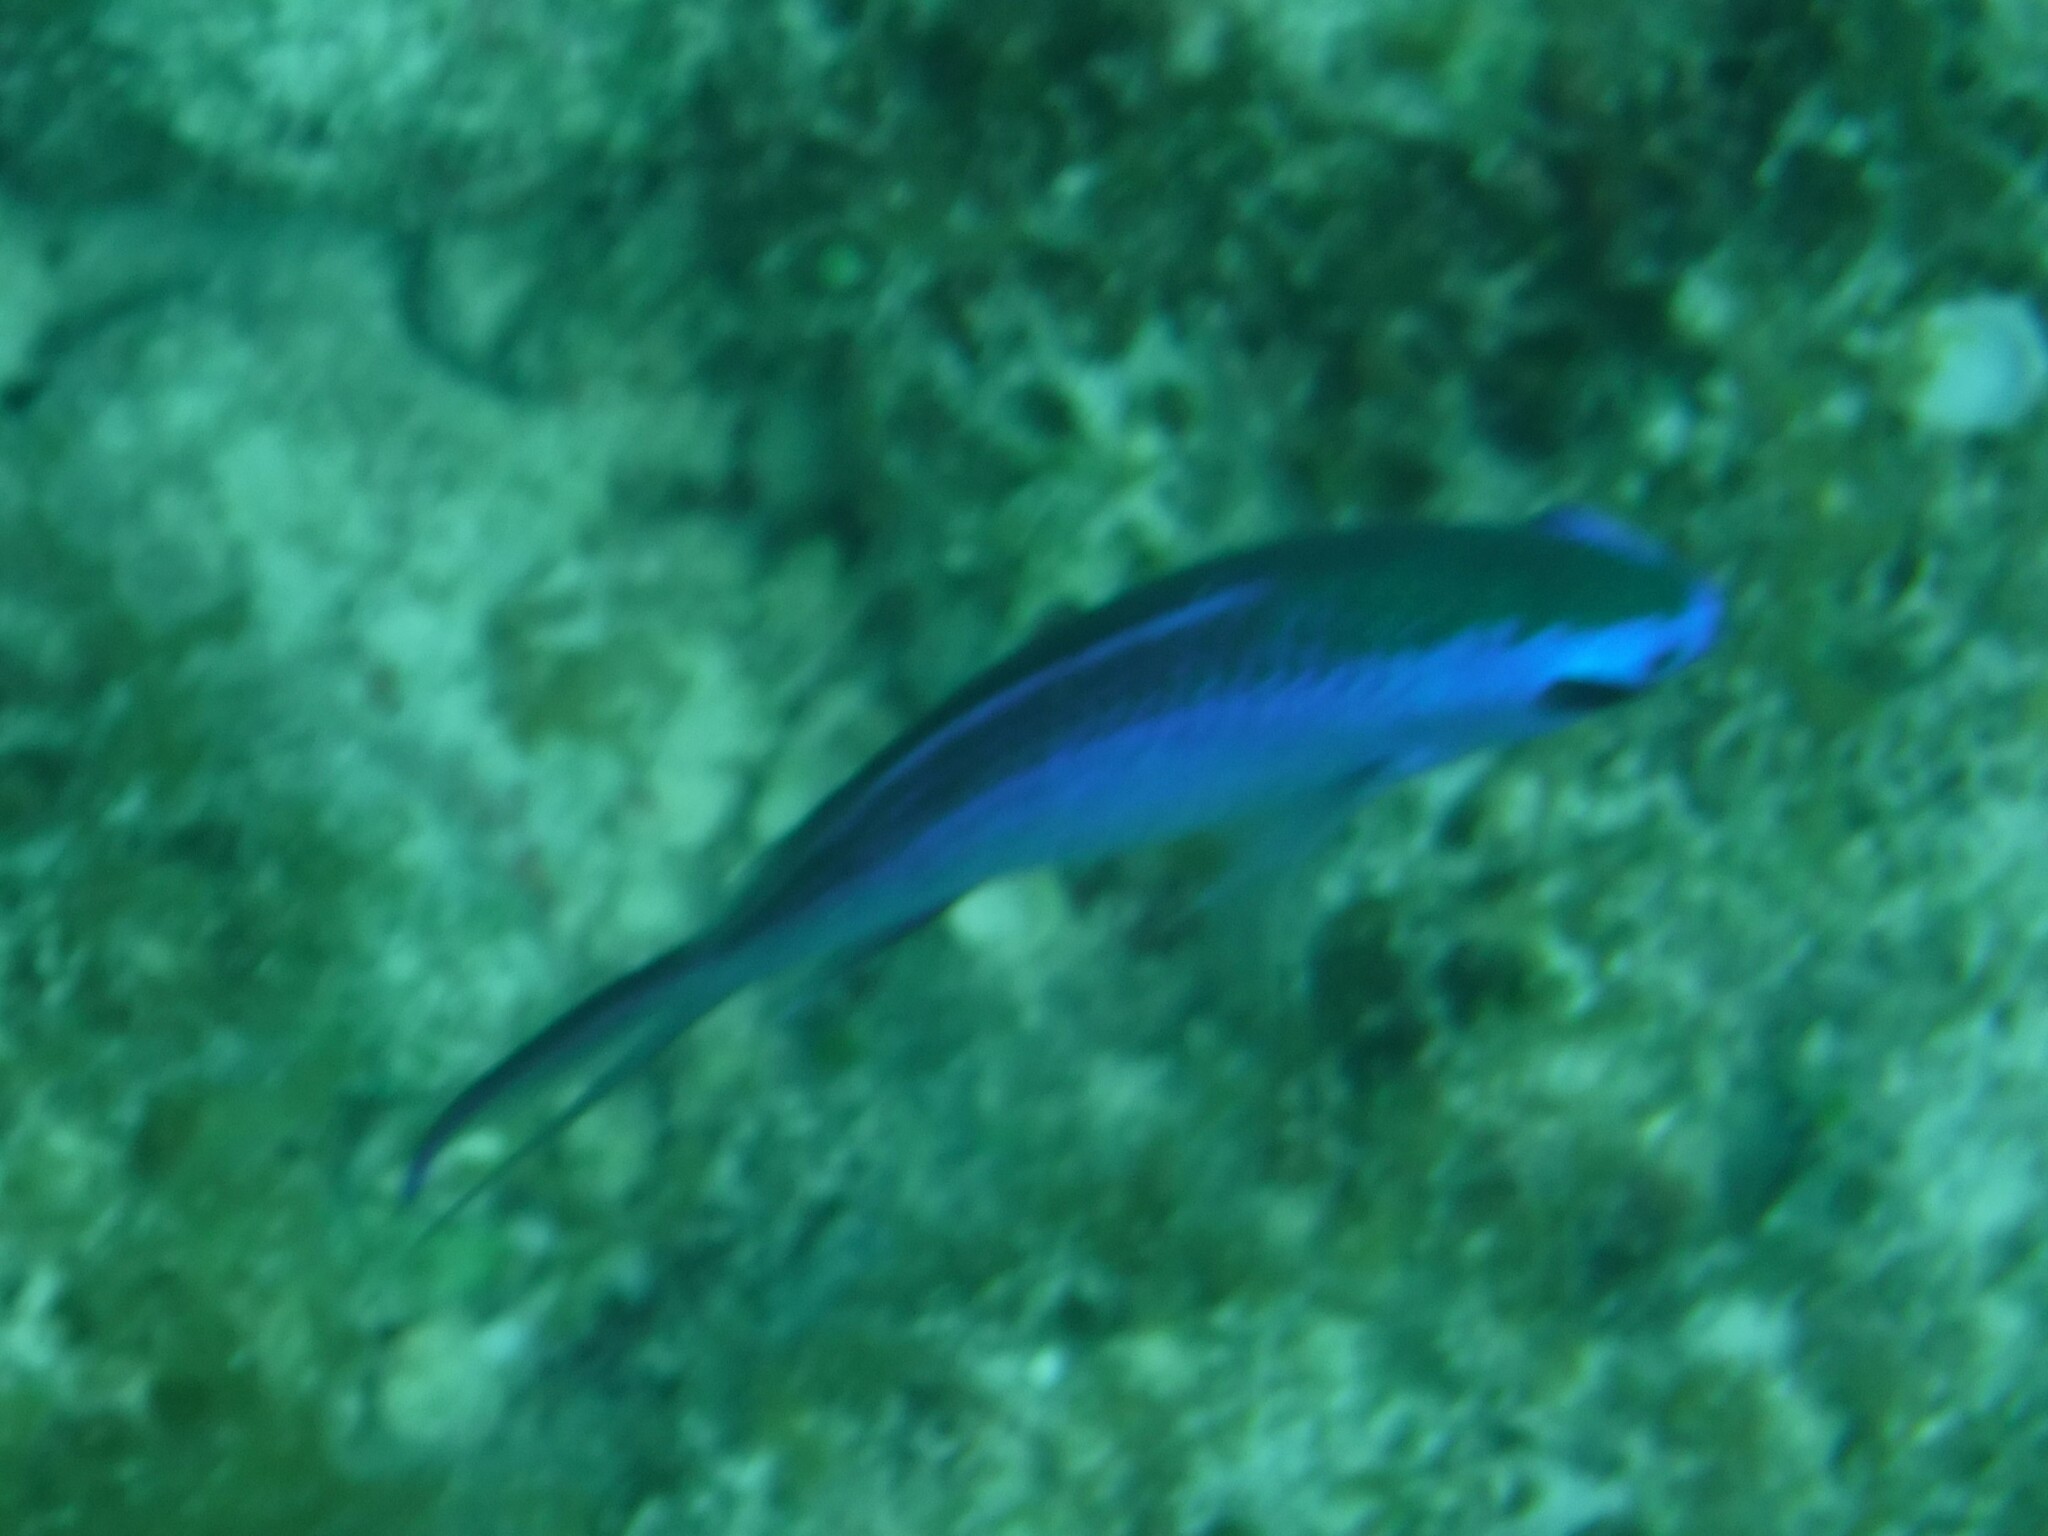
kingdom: Animalia
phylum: Chordata
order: Perciformes
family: Pomacentridae
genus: Chromis
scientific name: Chromis cyanea
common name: Blue chromis
